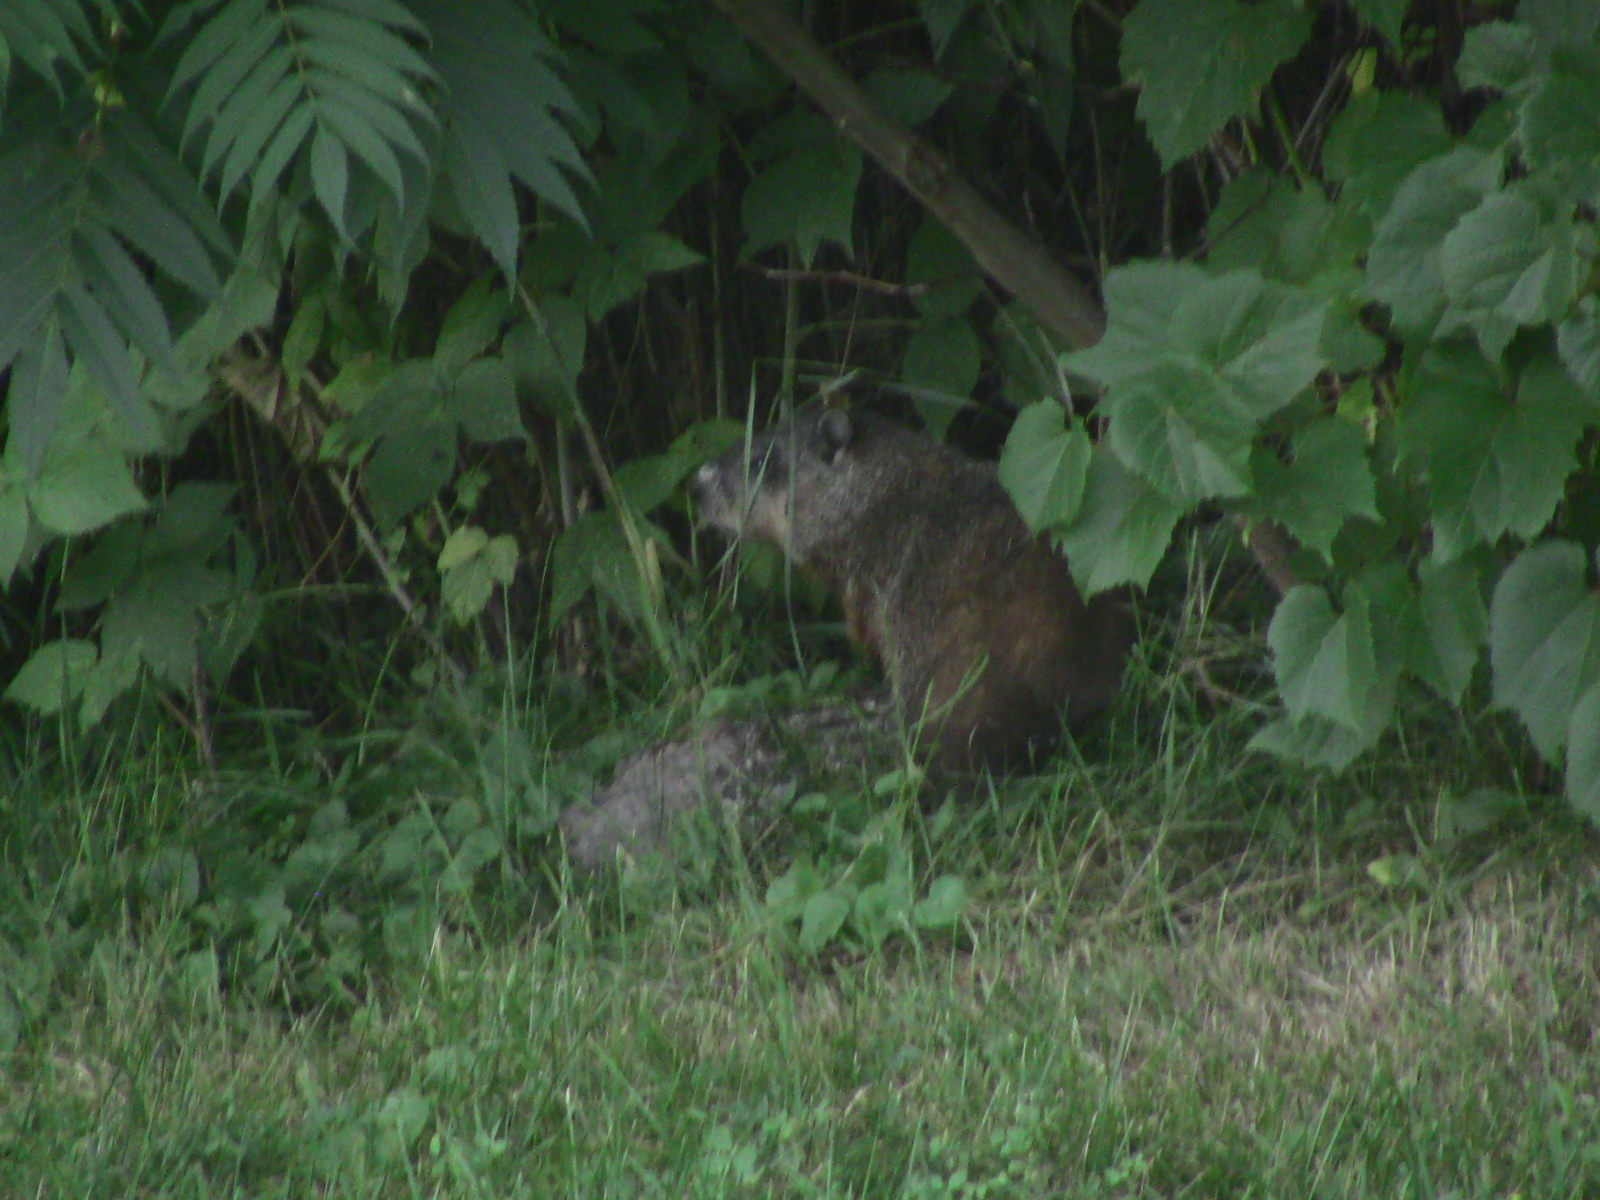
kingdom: Animalia
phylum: Chordata
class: Mammalia
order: Rodentia
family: Sciuridae
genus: Marmota
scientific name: Marmota monax
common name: Groundhog
